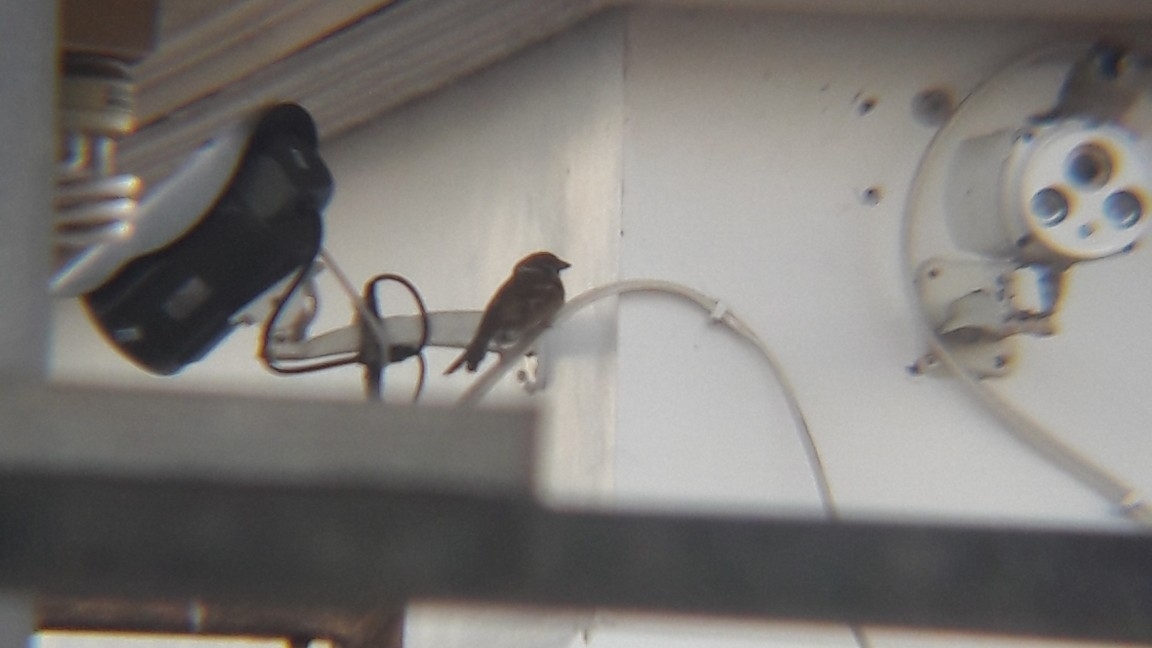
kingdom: Animalia
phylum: Chordata
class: Aves
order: Passeriformes
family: Passeridae
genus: Passer
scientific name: Passer montanus
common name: Eurasian tree sparrow
